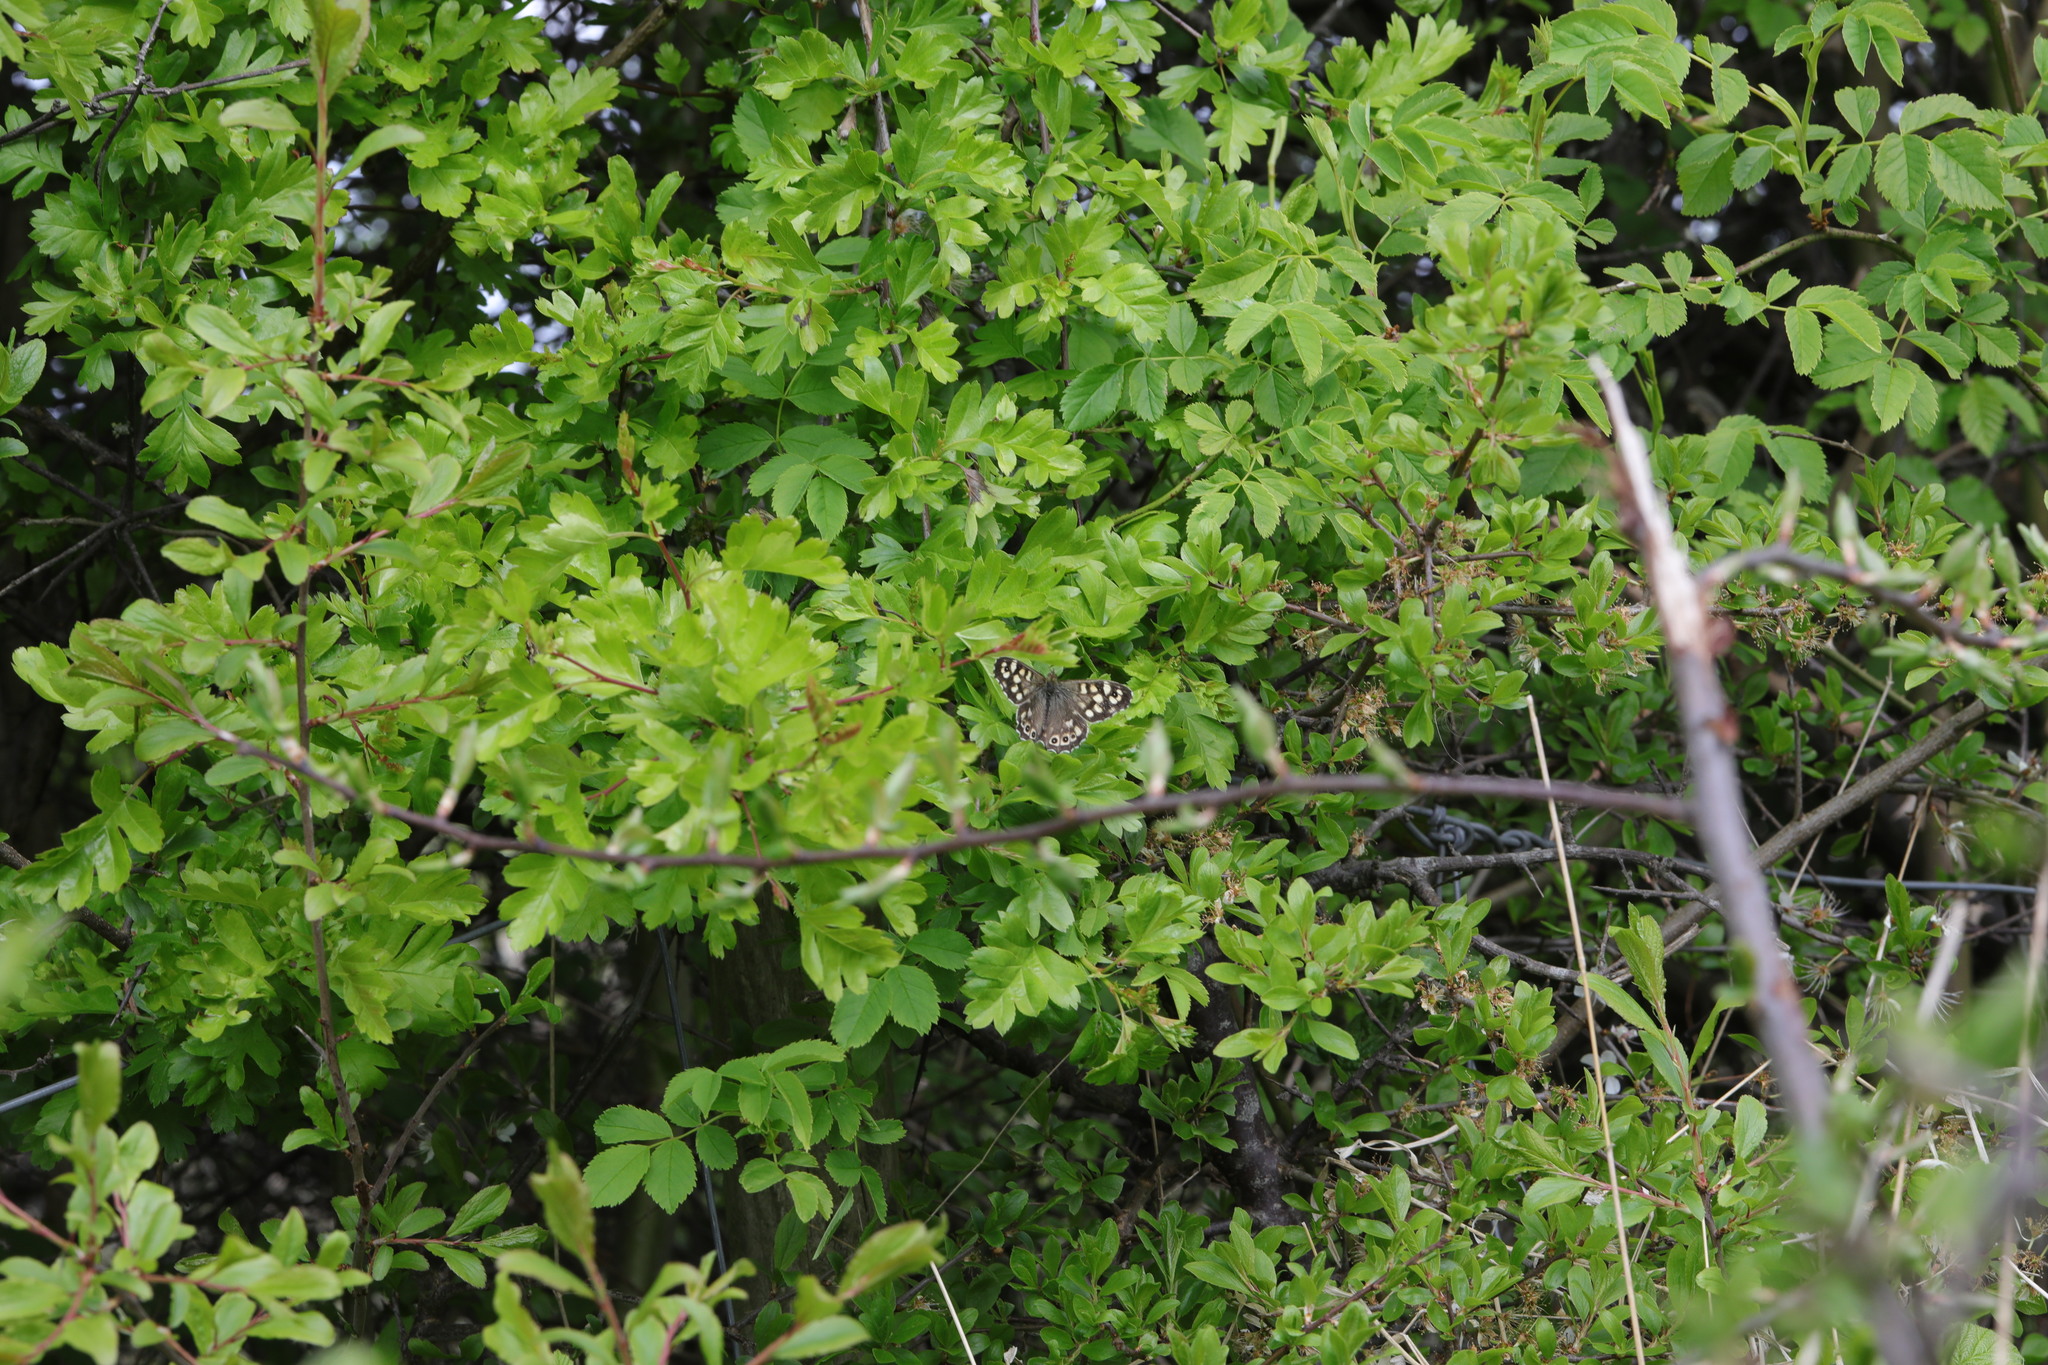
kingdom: Animalia
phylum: Arthropoda
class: Insecta
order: Lepidoptera
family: Nymphalidae
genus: Pararge
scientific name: Pararge aegeria
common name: Speckled wood
